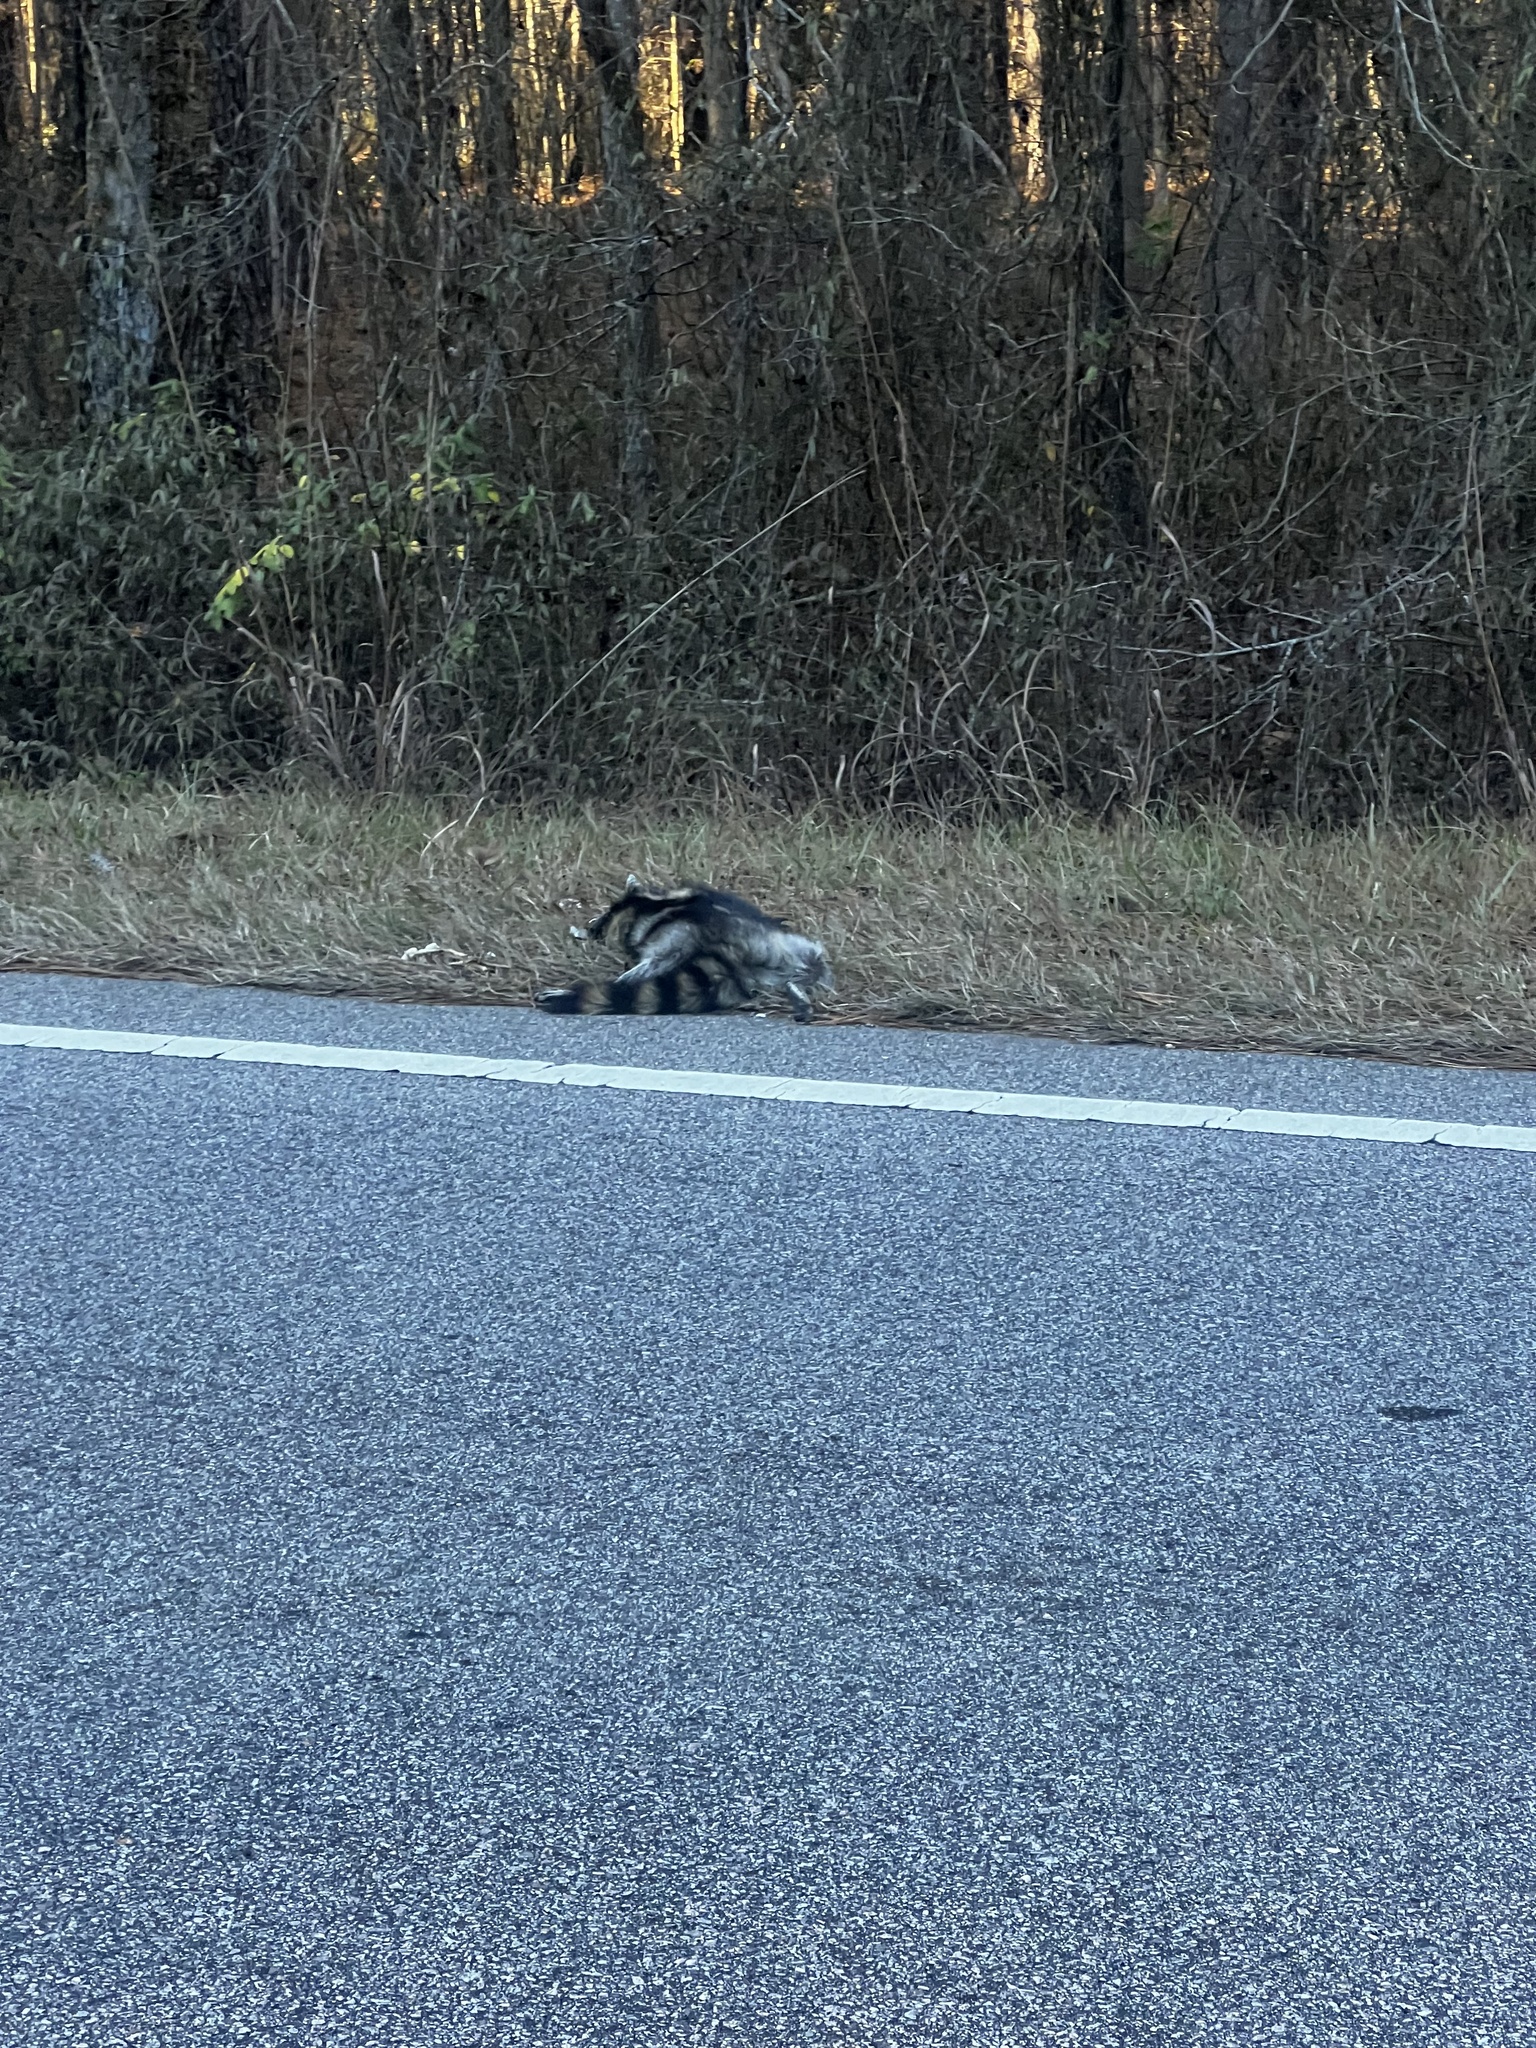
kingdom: Animalia
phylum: Chordata
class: Mammalia
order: Carnivora
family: Procyonidae
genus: Procyon
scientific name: Procyon lotor
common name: Raccoon
